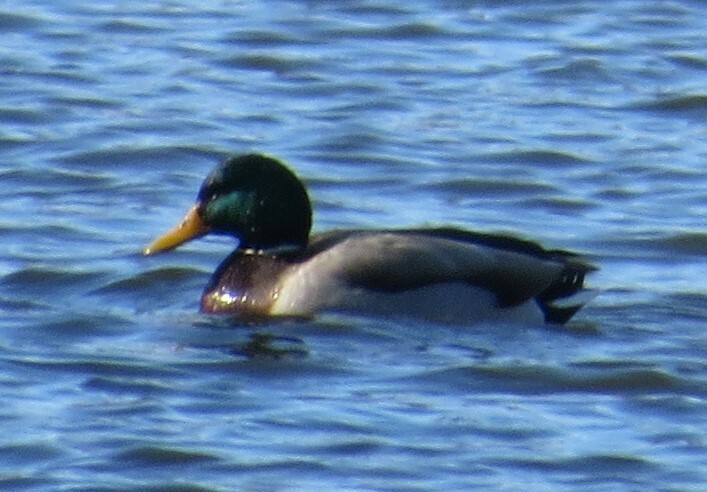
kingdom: Animalia
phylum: Chordata
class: Aves
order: Anseriformes
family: Anatidae
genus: Anas
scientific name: Anas platyrhynchos
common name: Mallard
